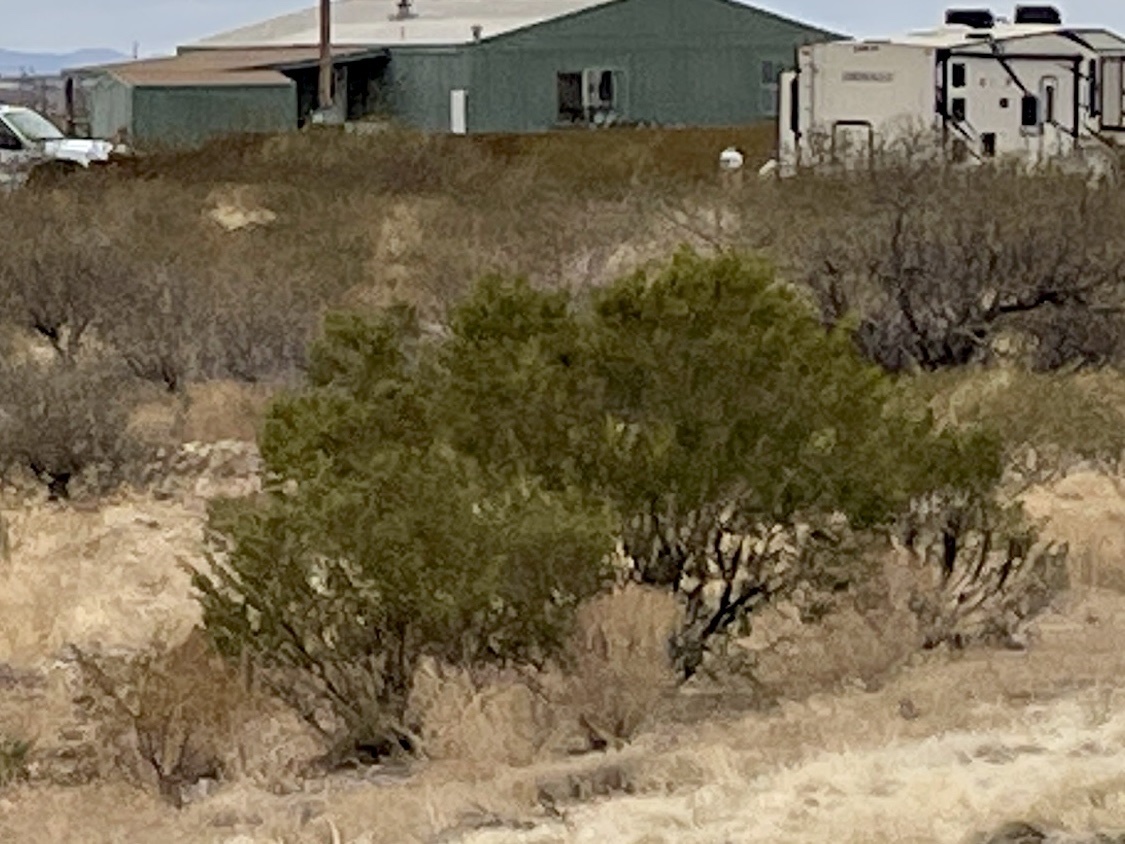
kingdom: Plantae
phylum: Tracheophyta
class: Magnoliopsida
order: Zygophyllales
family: Zygophyllaceae
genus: Larrea
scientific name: Larrea tridentata
